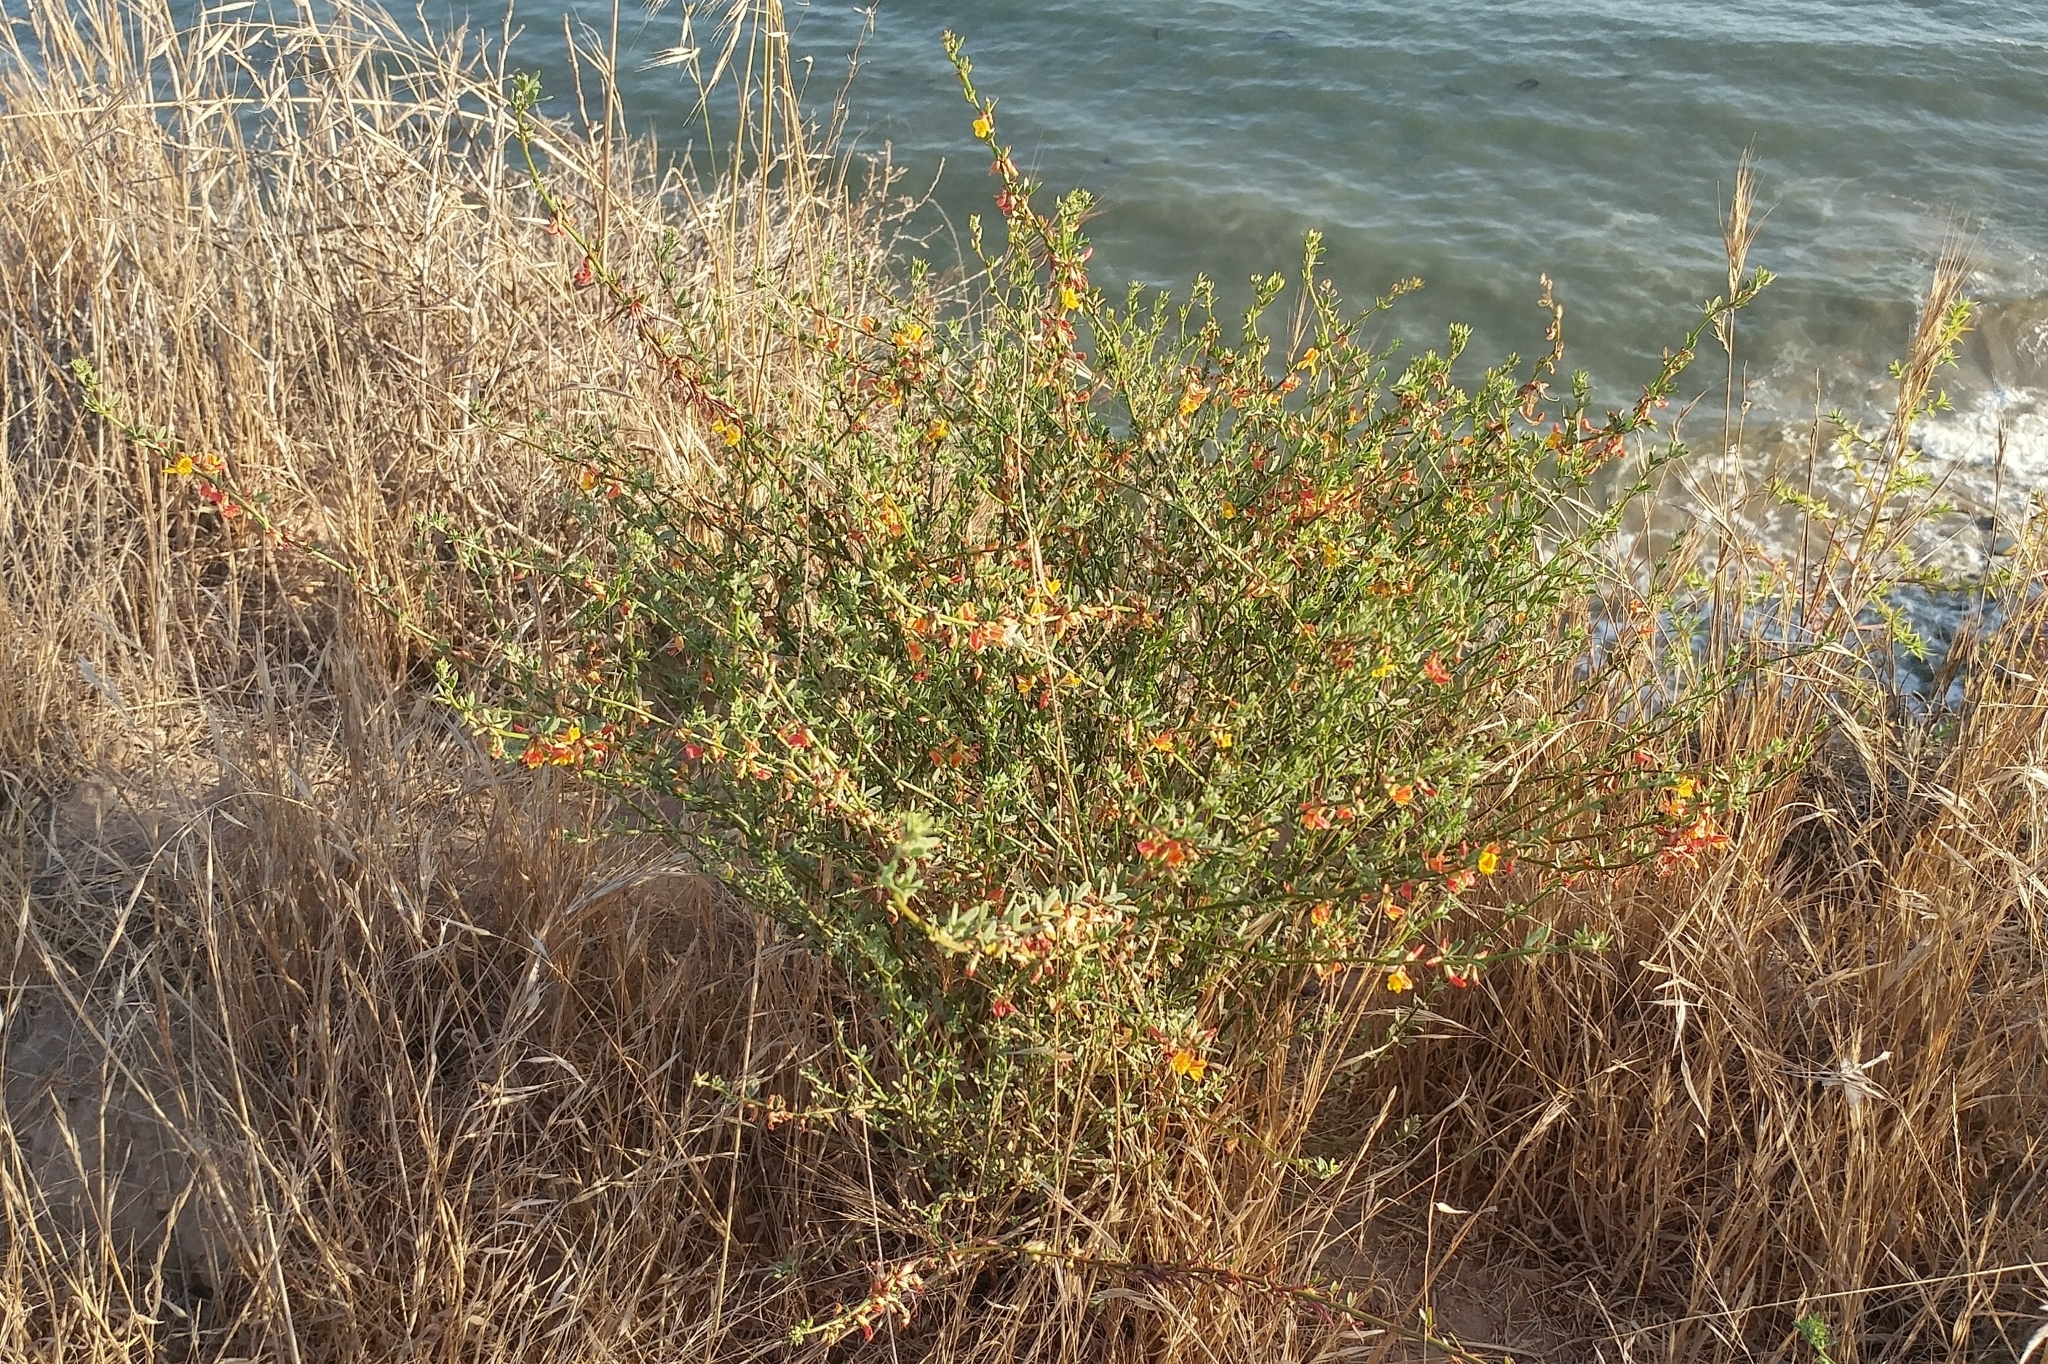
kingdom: Plantae
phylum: Tracheophyta
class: Magnoliopsida
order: Fabales
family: Fabaceae
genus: Acmispon
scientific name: Acmispon glaber
